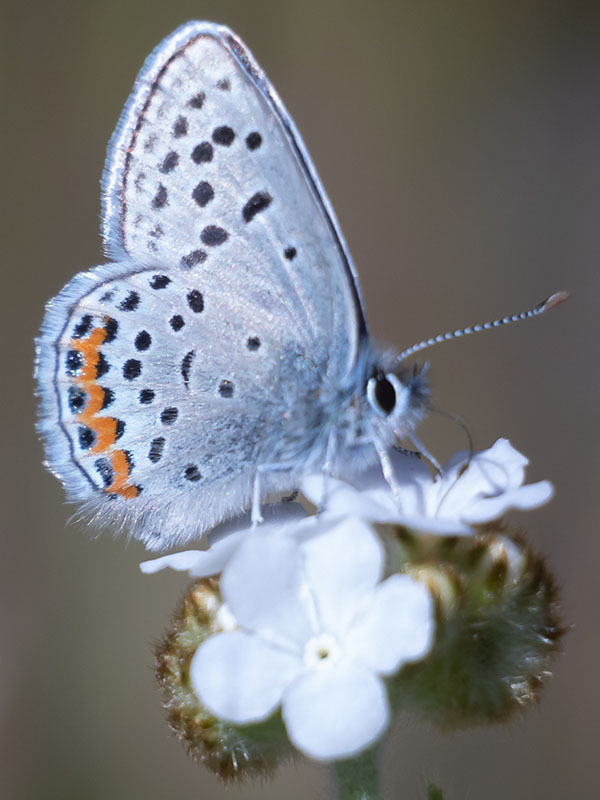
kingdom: Animalia
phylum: Arthropoda
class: Insecta
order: Lepidoptera
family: Lycaenidae
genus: Icaricia
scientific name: Icaricia acmon
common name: Acmon blue
